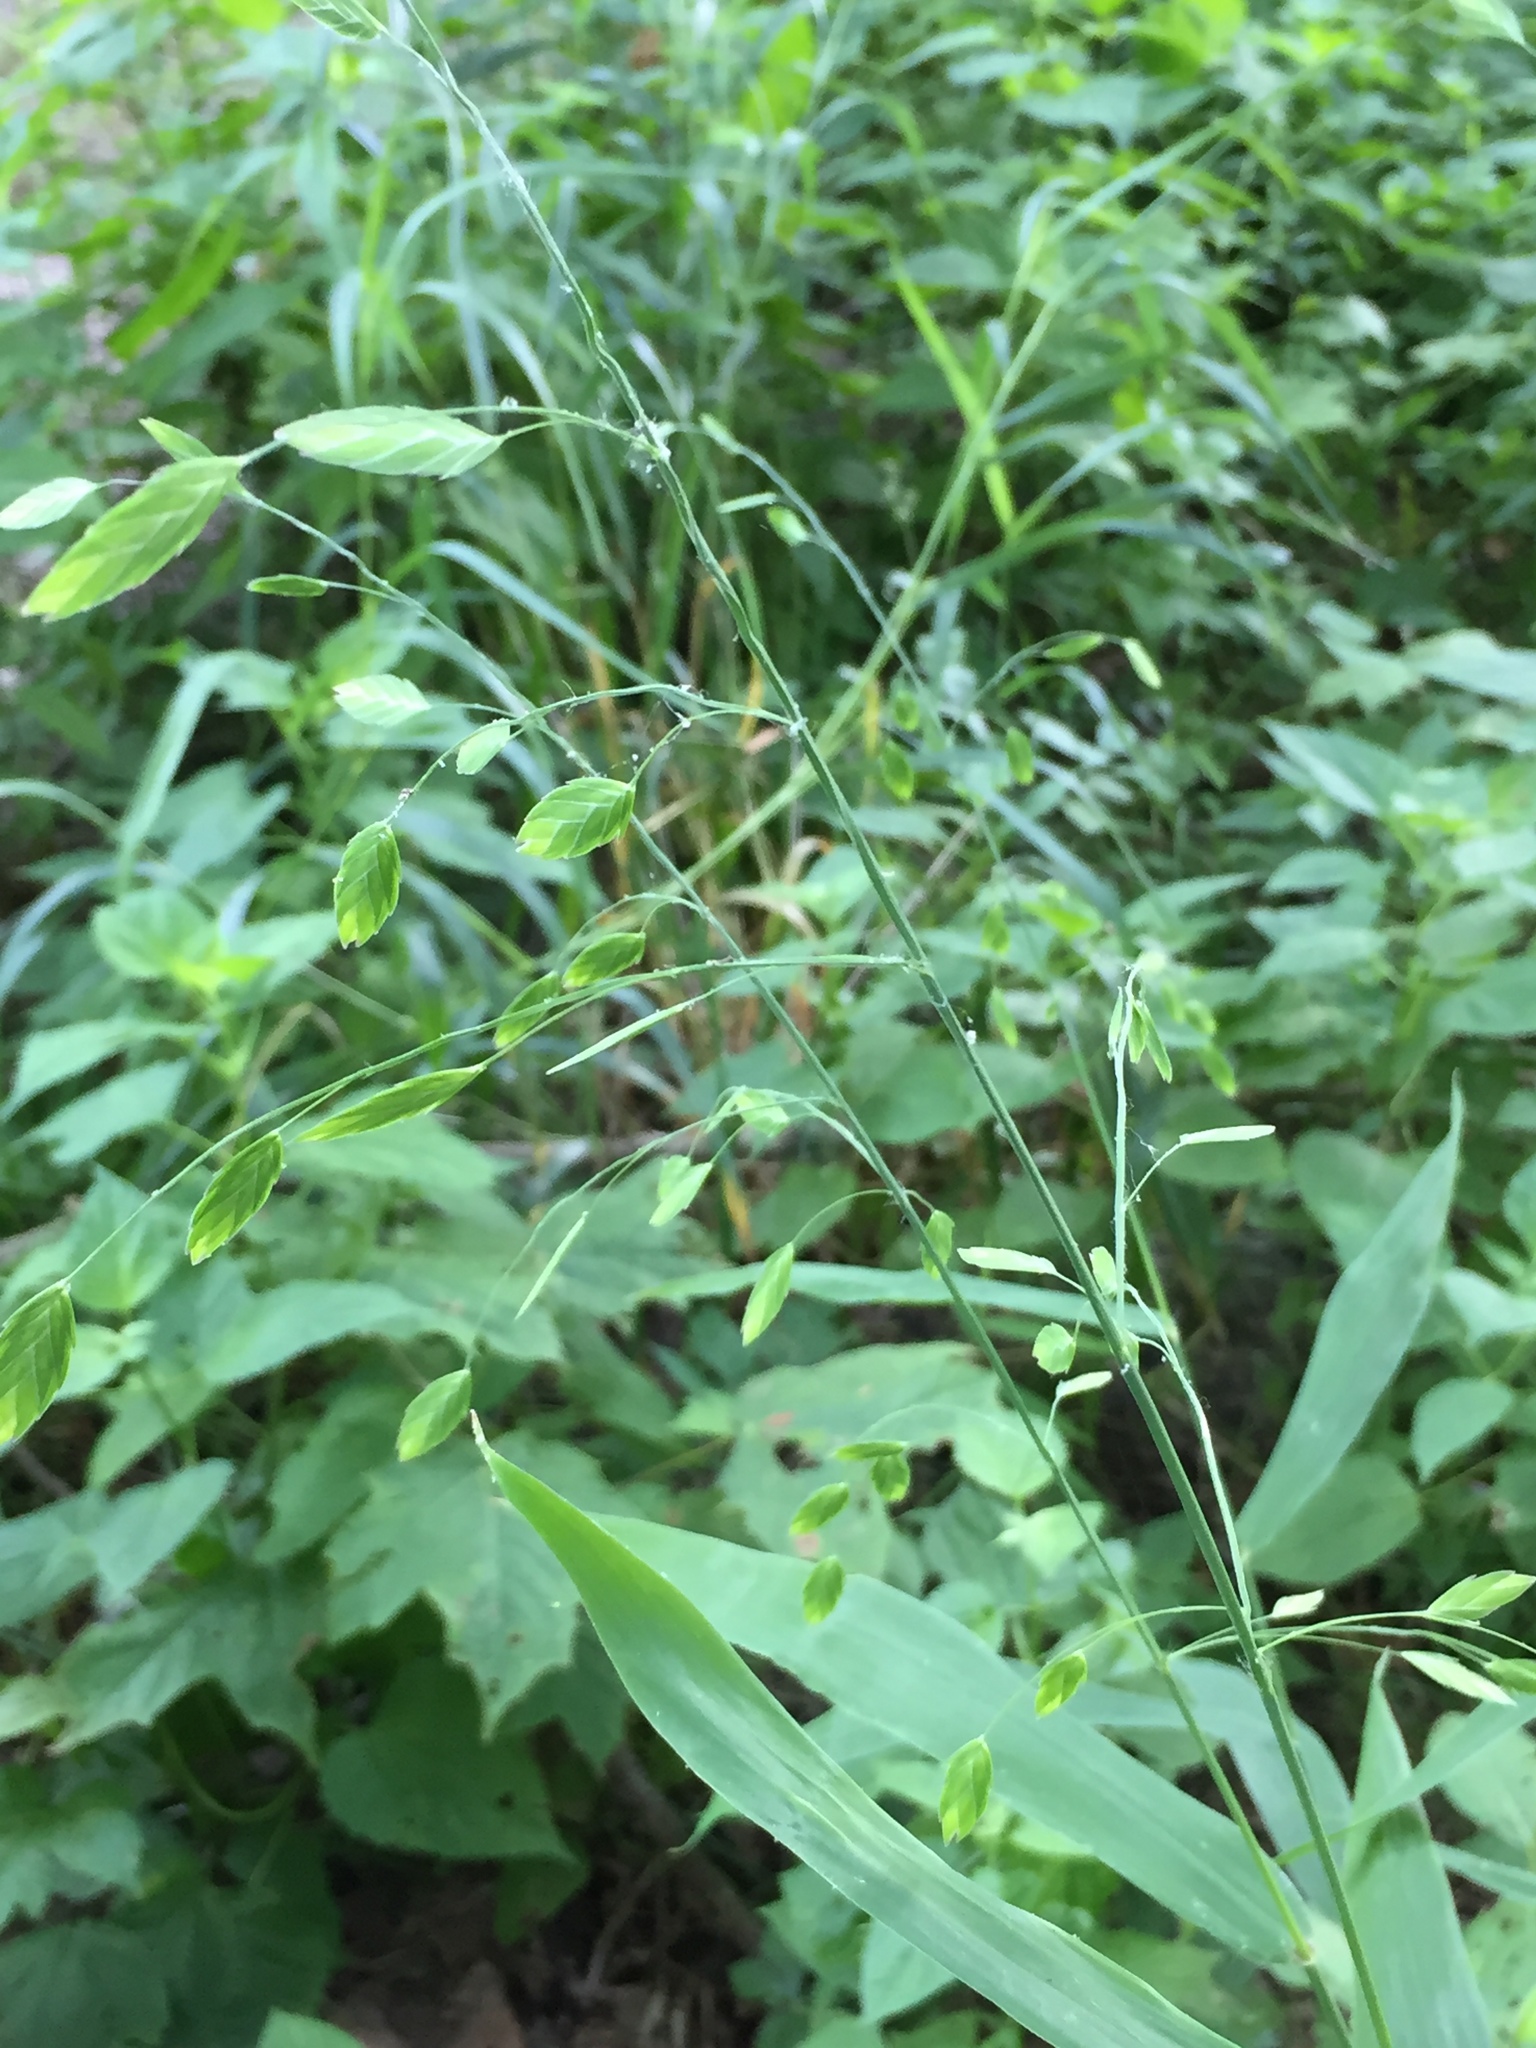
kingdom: Plantae
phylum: Tracheophyta
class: Liliopsida
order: Poales
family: Poaceae
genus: Chasmanthium
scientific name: Chasmanthium latifolium
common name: Broad-leaved chasmanthium
